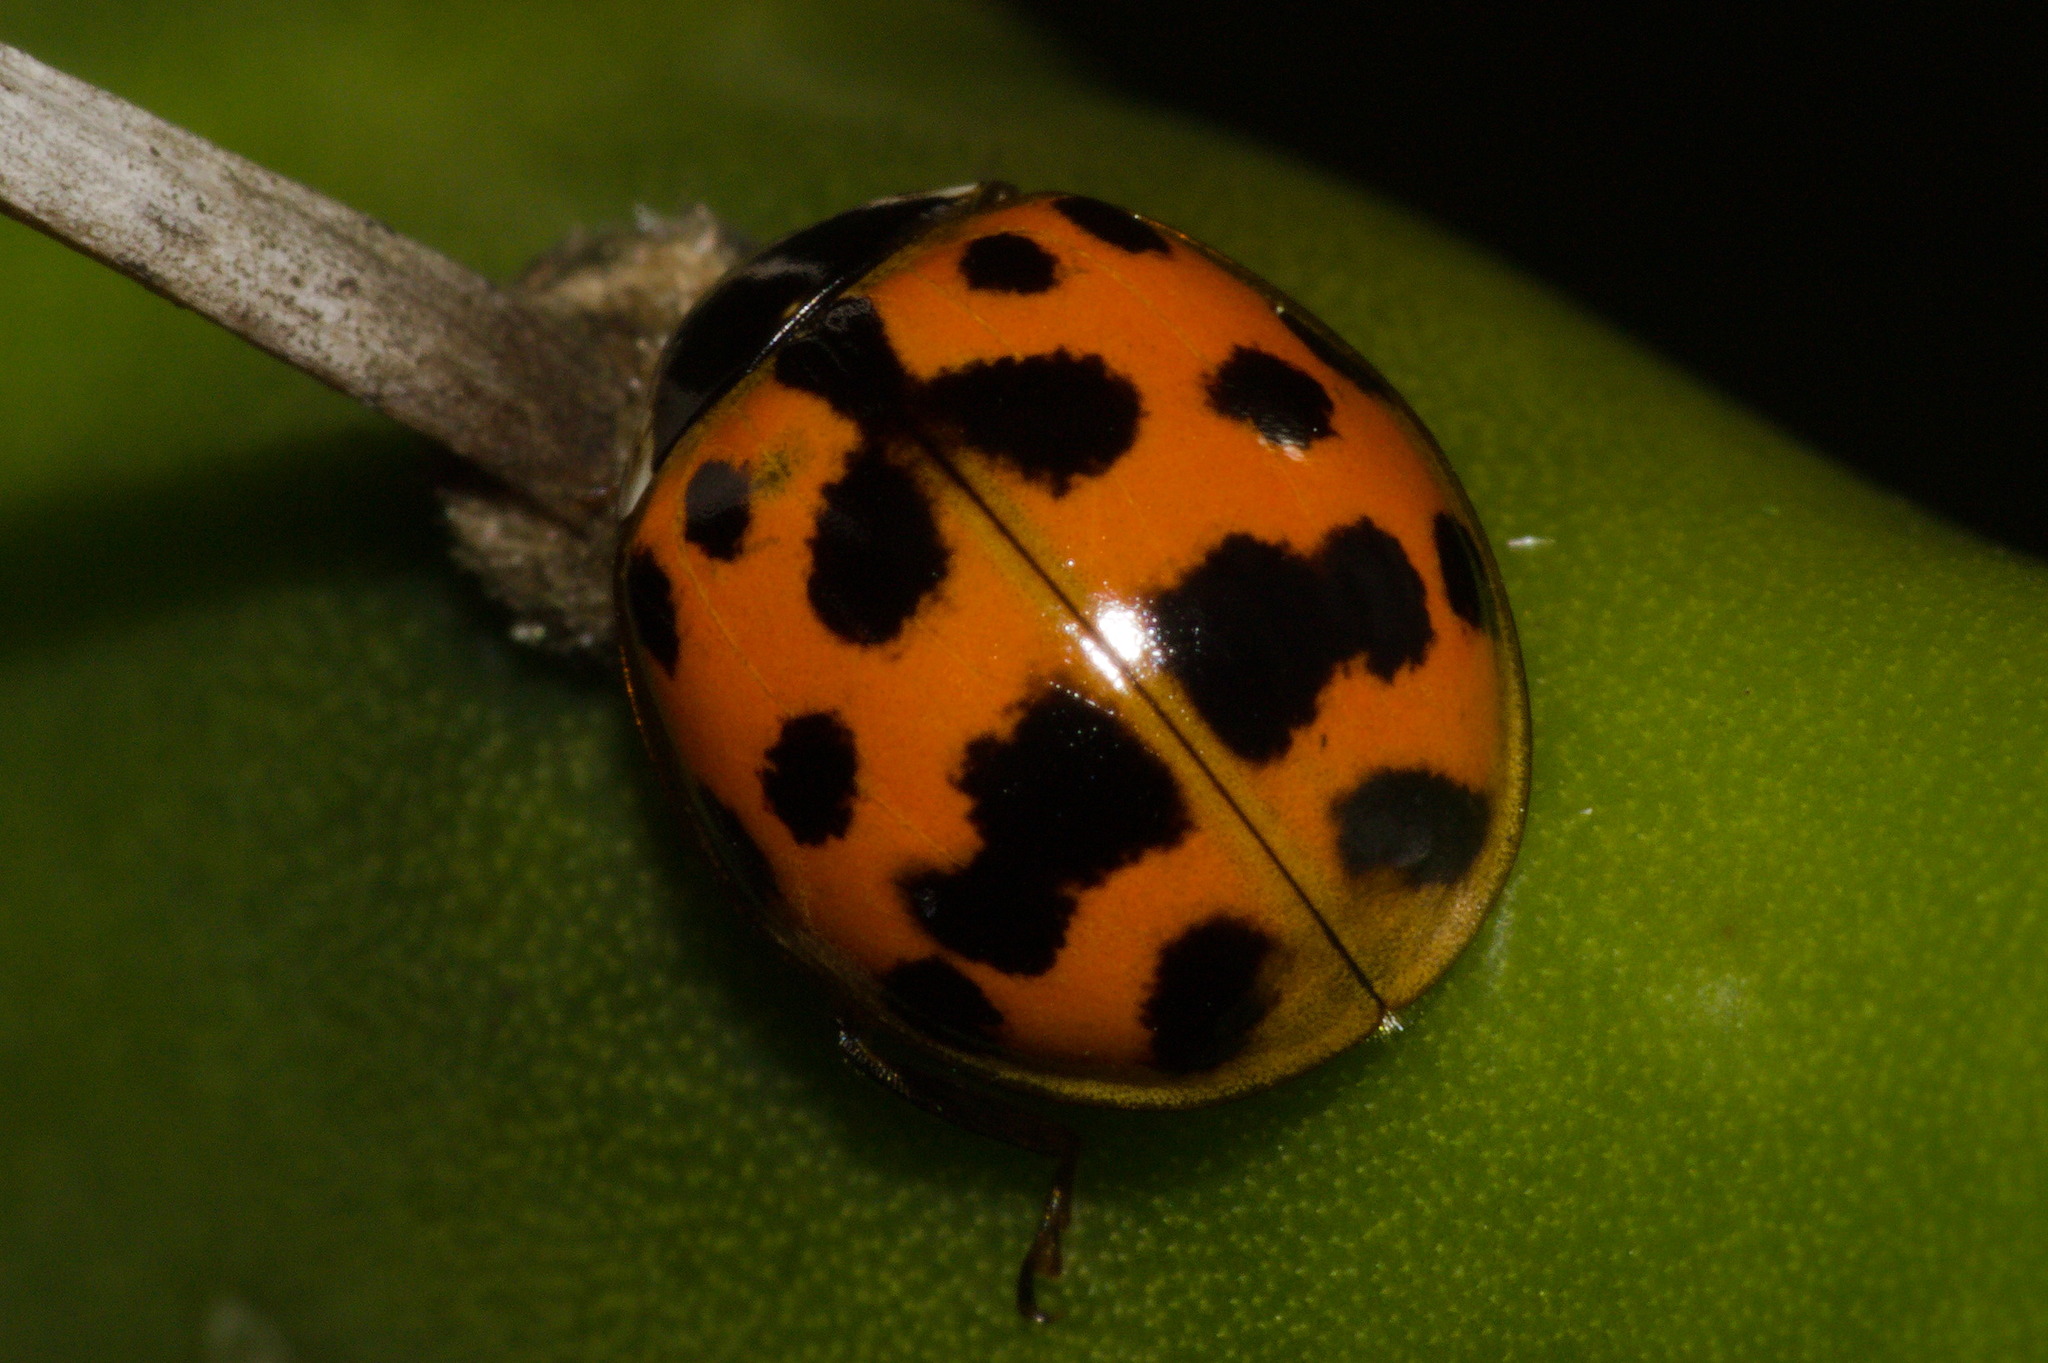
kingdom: Animalia
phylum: Arthropoda
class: Insecta
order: Coleoptera
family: Coccinellidae
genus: Harmonia
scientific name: Harmonia axyridis
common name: Harlequin ladybird
